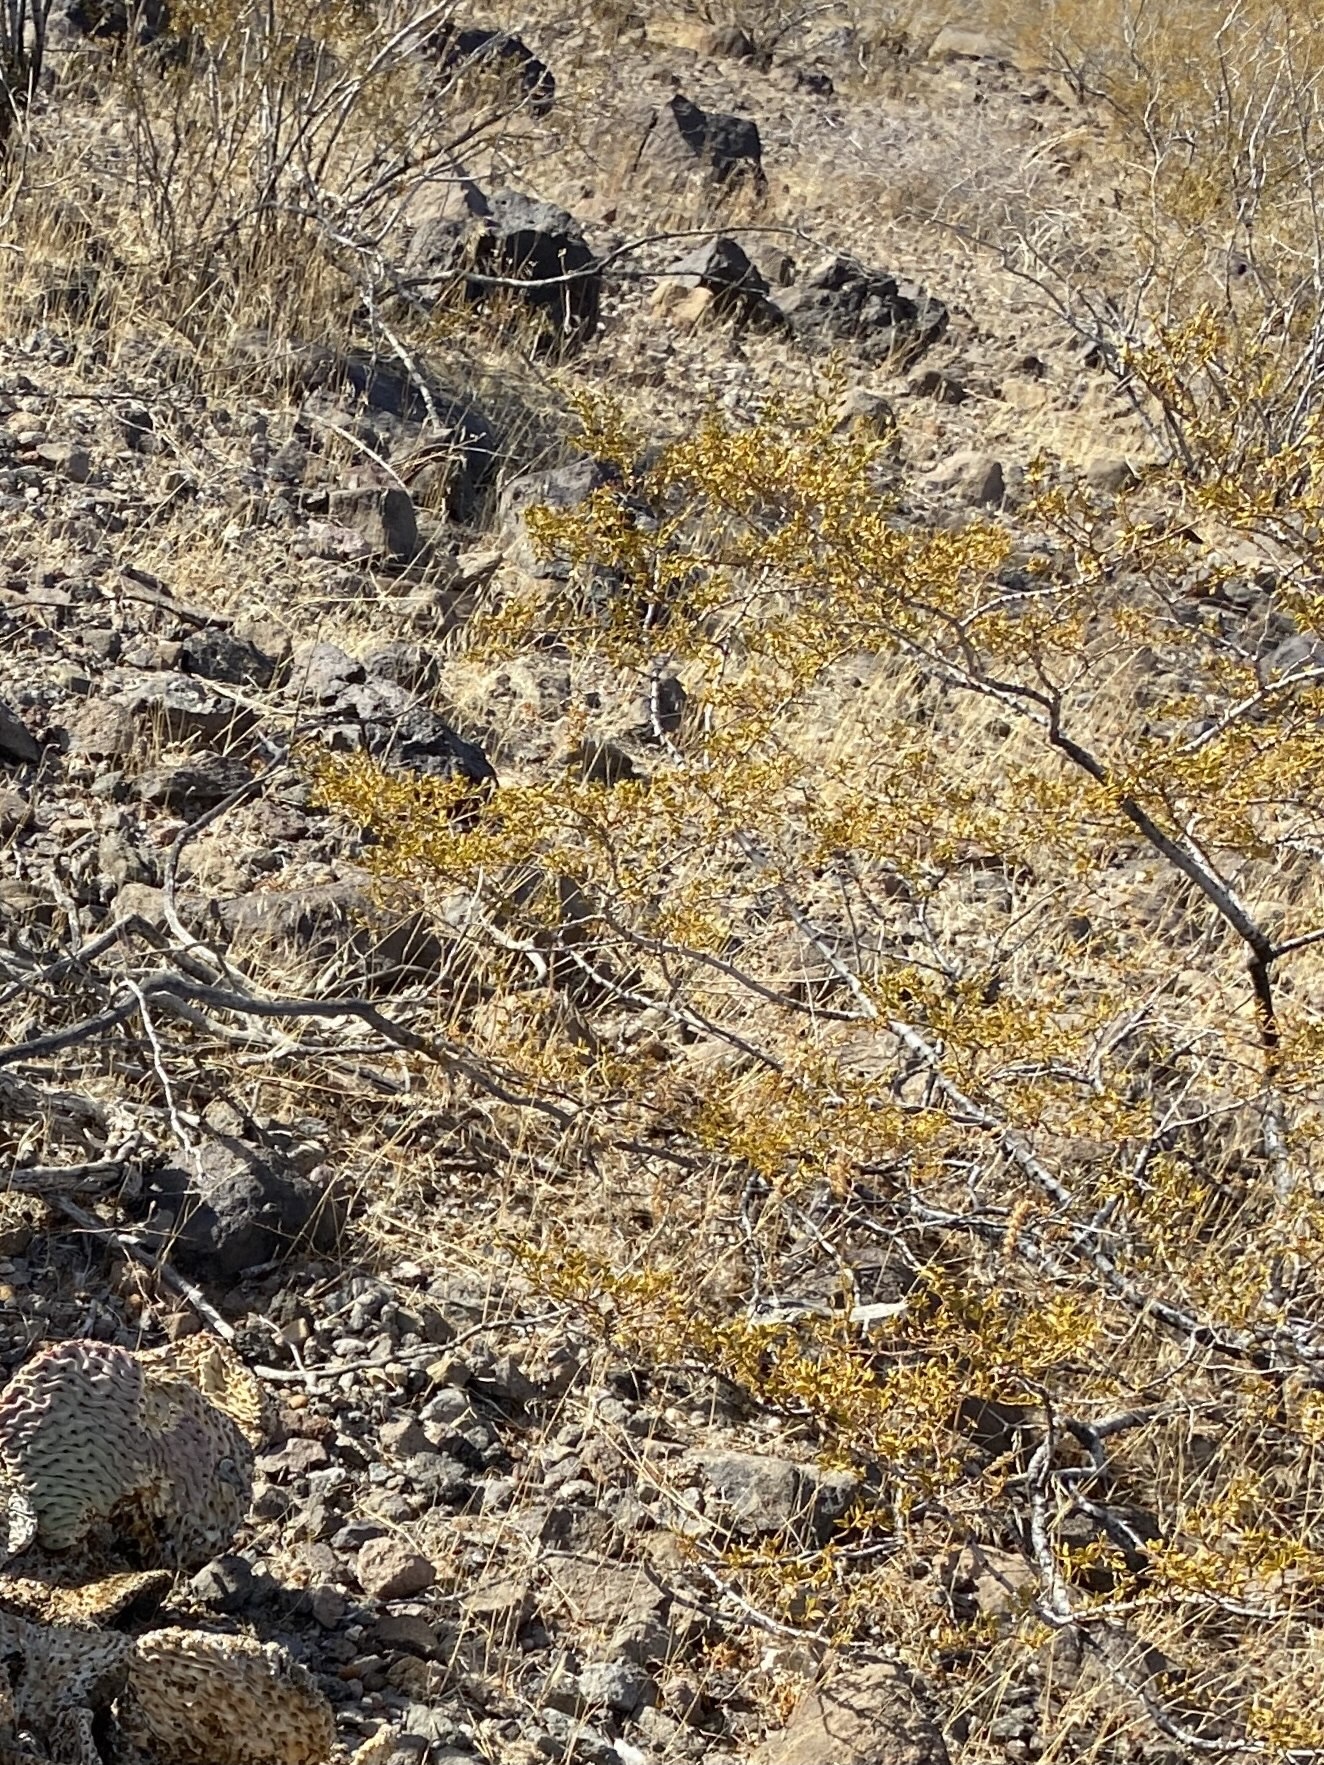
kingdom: Plantae
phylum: Tracheophyta
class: Magnoliopsida
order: Zygophyllales
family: Zygophyllaceae
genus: Larrea
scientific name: Larrea tridentata
